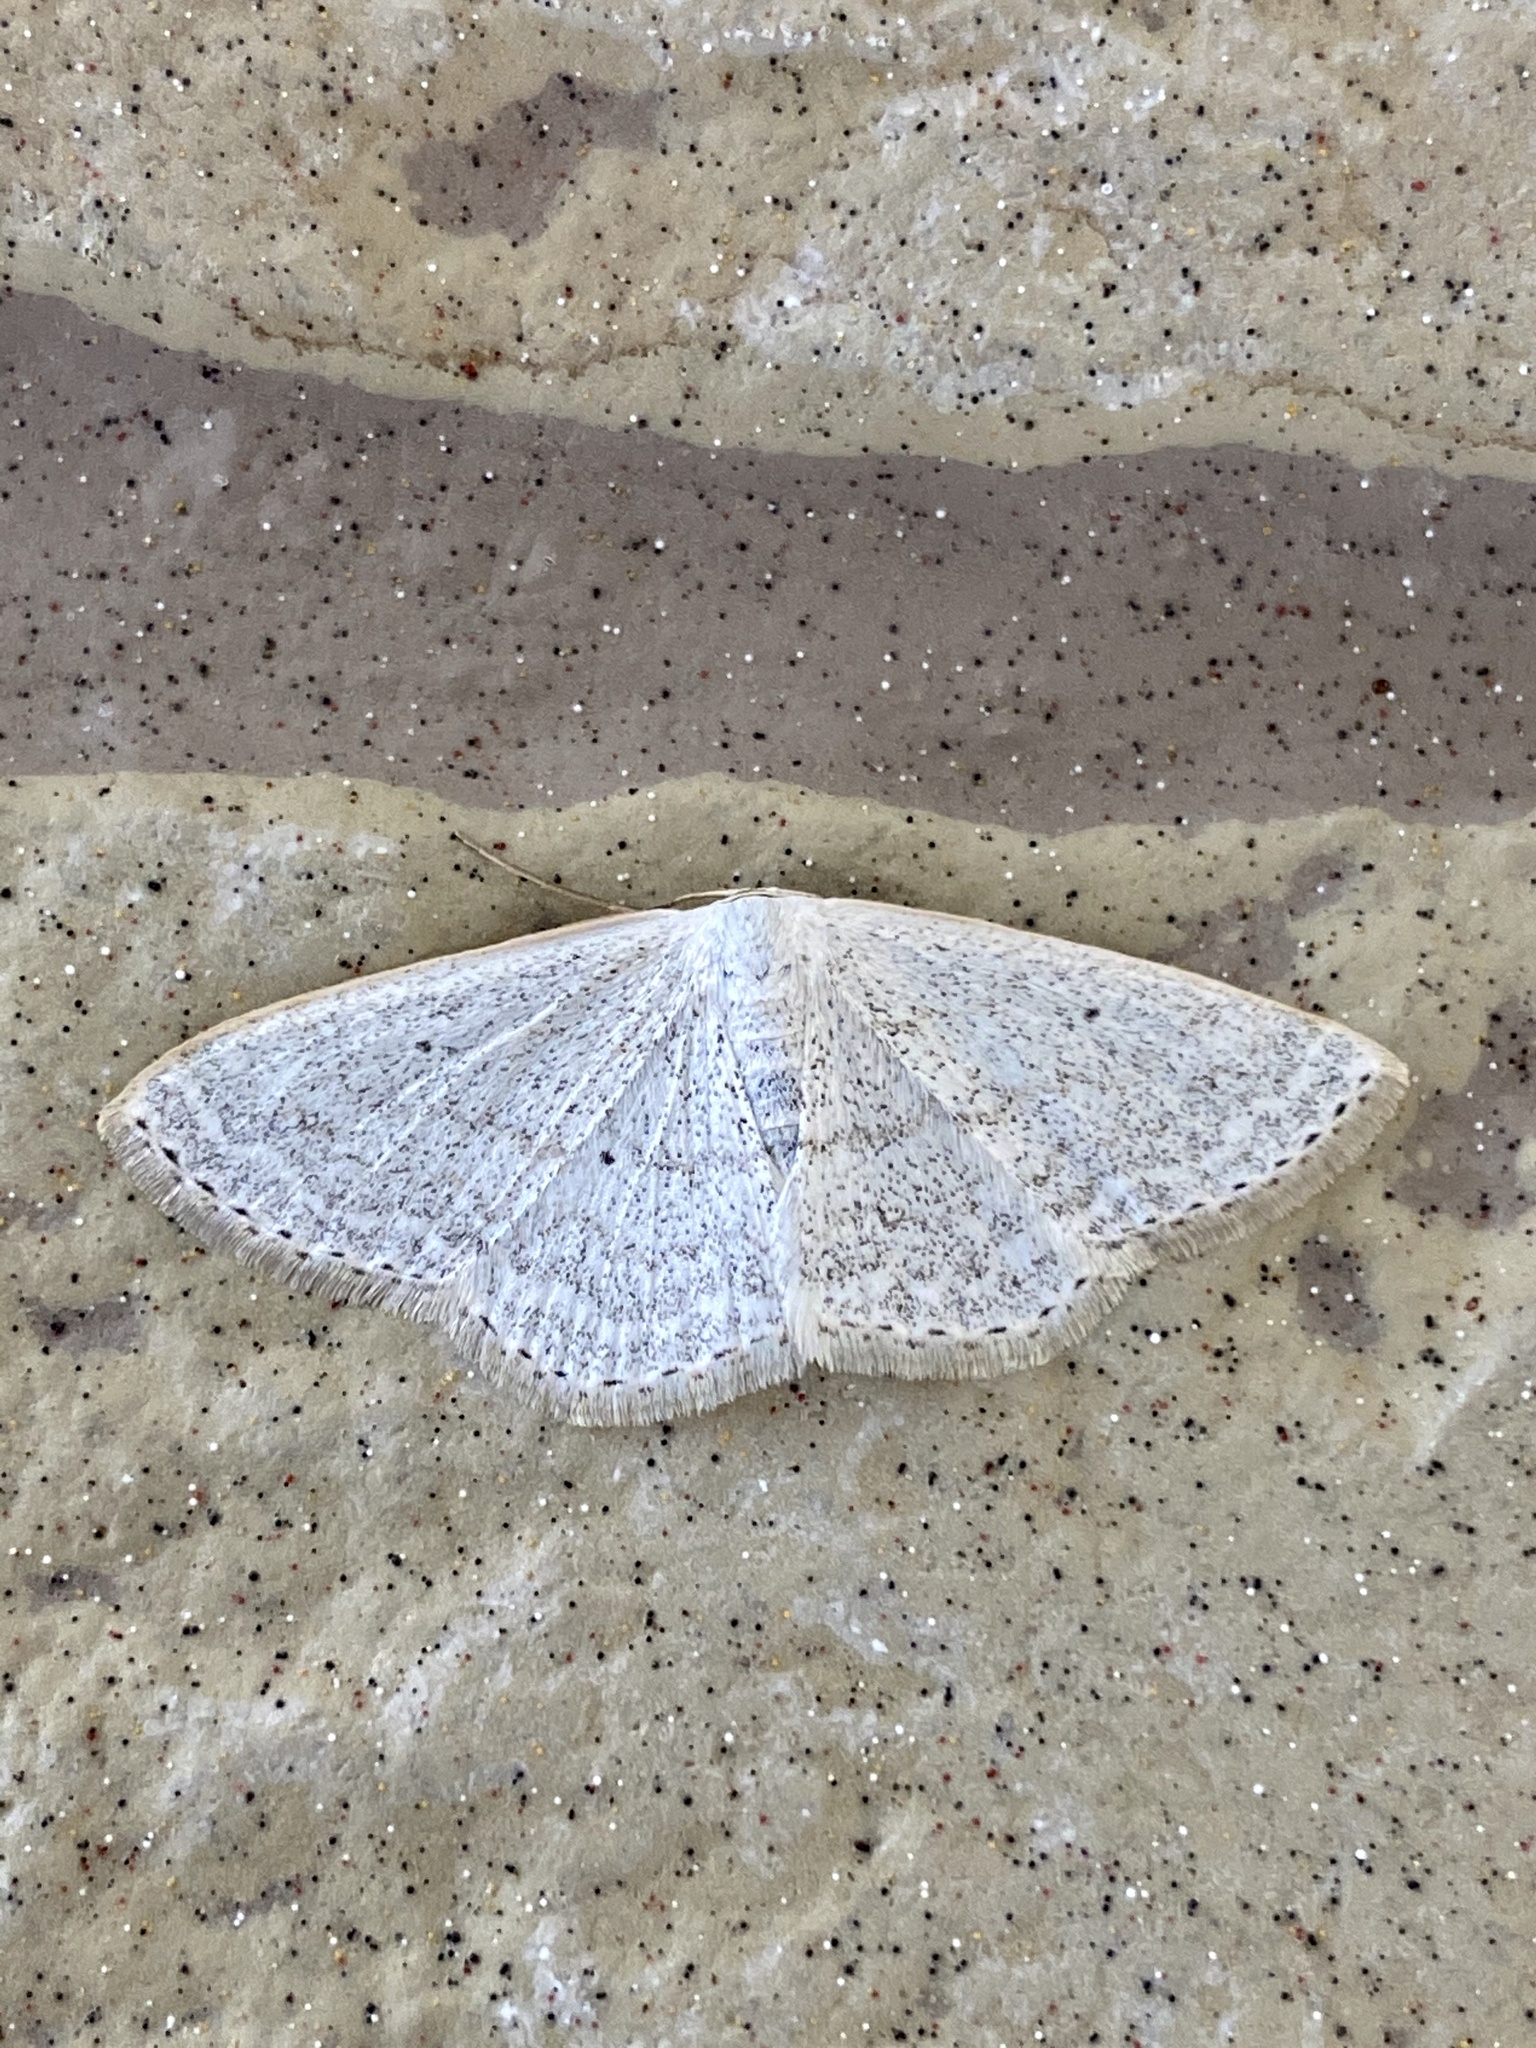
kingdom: Animalia
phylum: Arthropoda
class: Insecta
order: Lepidoptera
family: Geometridae
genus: Scopula
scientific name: Scopula epiorrhoe
